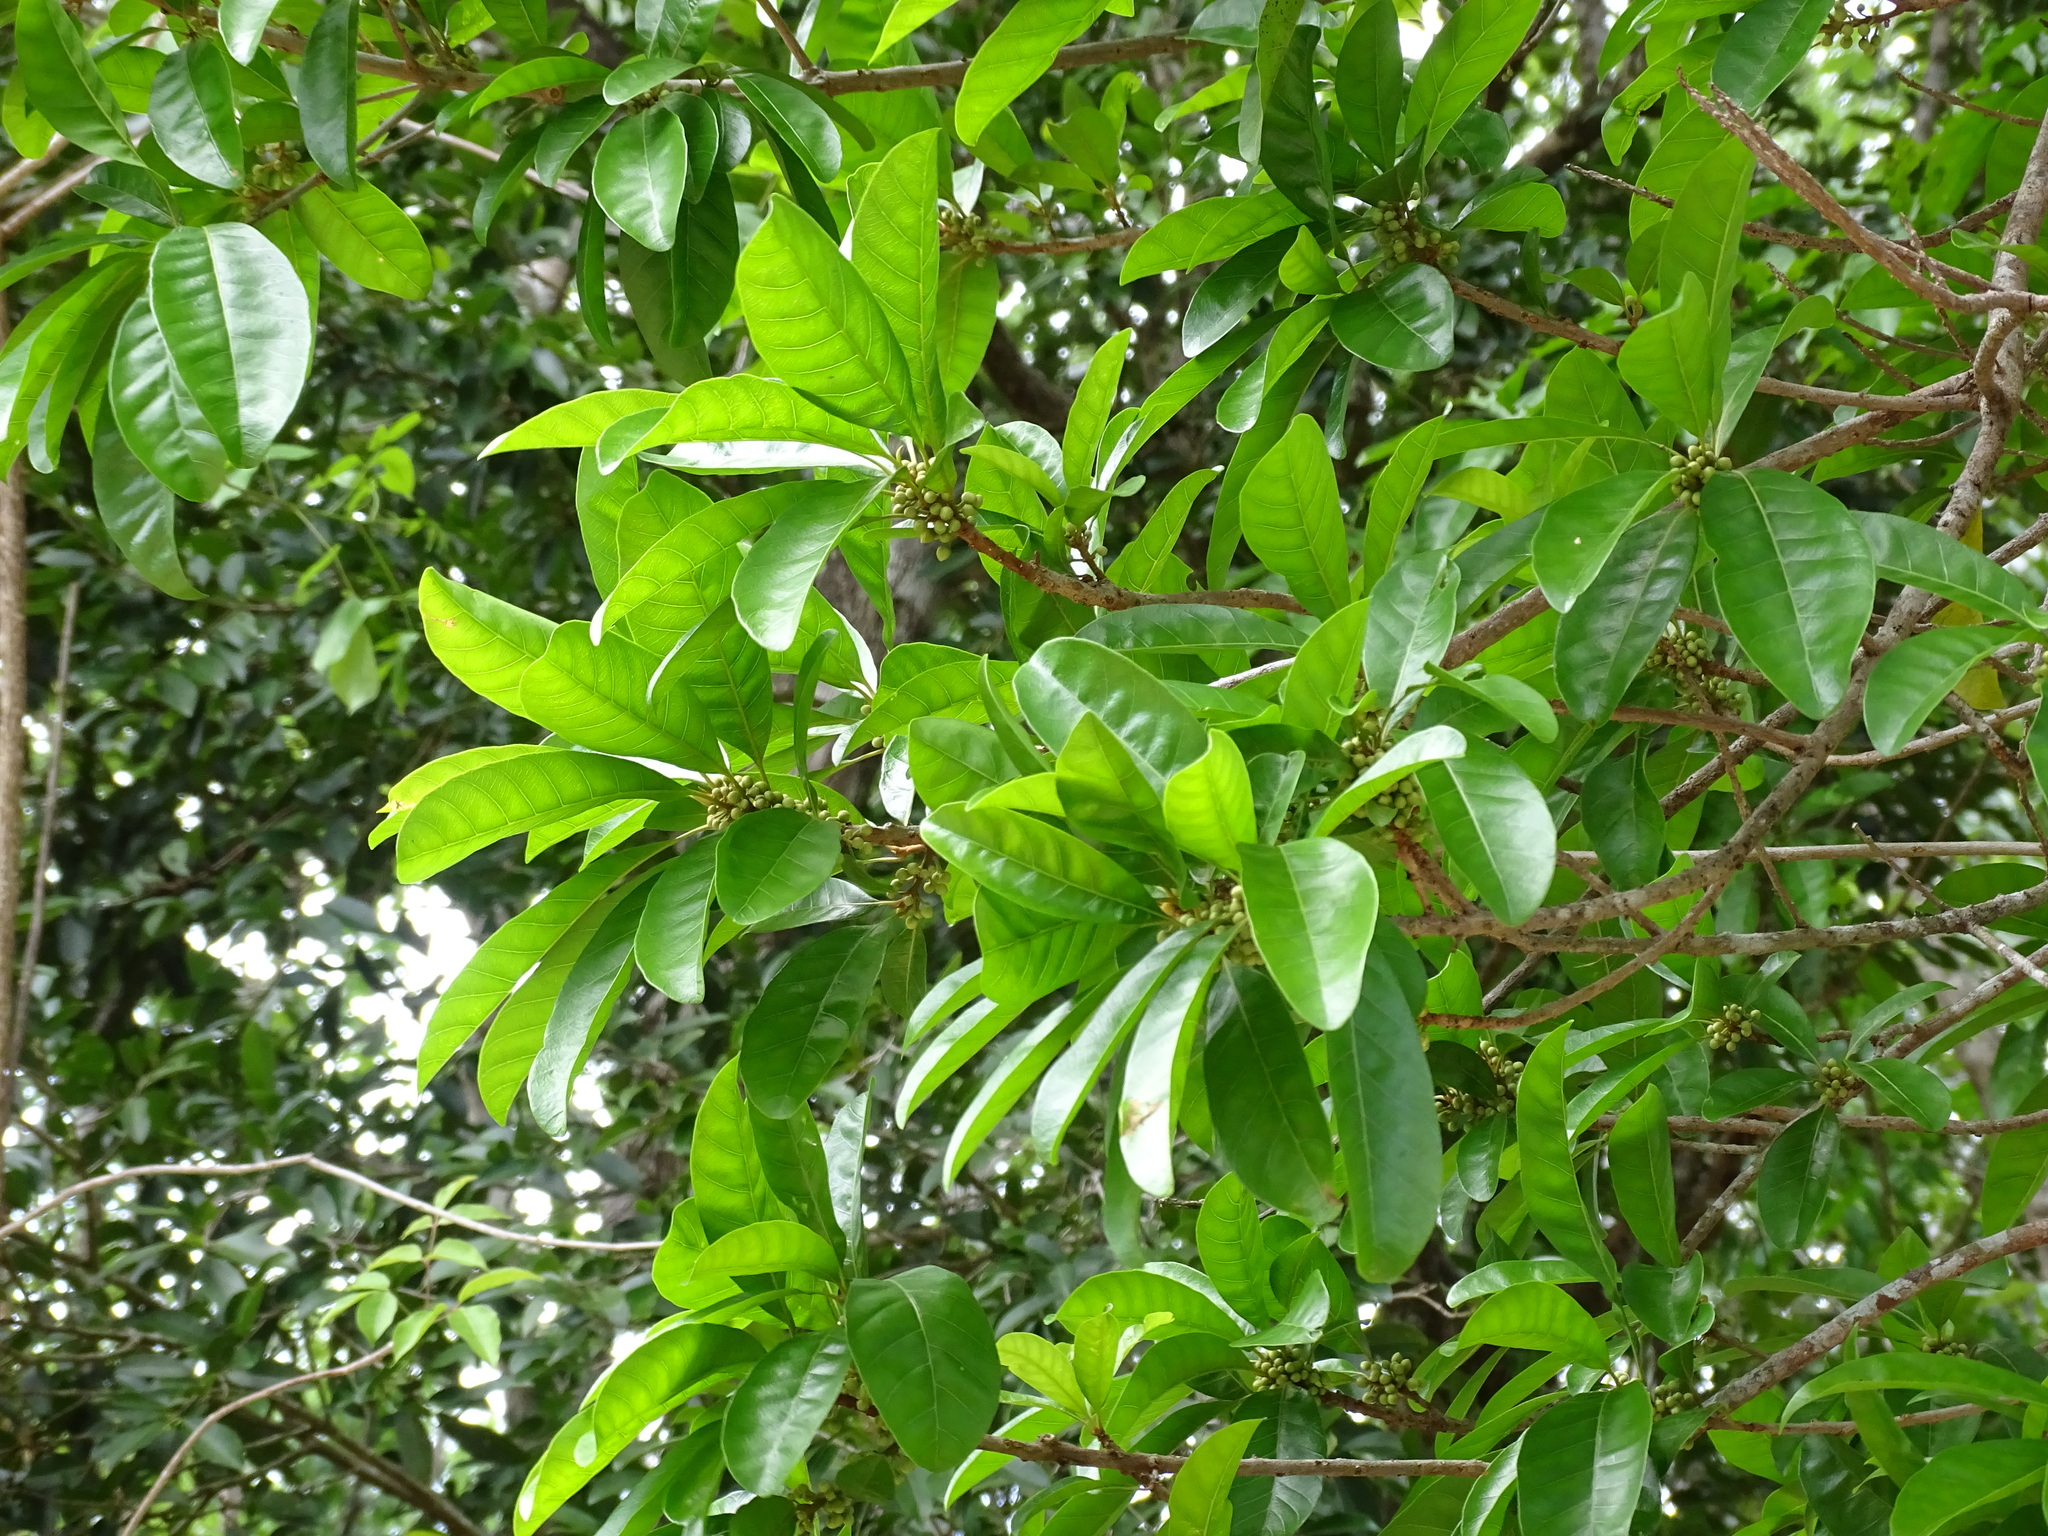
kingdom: Plantae
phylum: Tracheophyta
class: Magnoliopsida
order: Ericales
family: Sapotaceae
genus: Pouteria
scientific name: Pouteria campechiana
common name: Canistel
